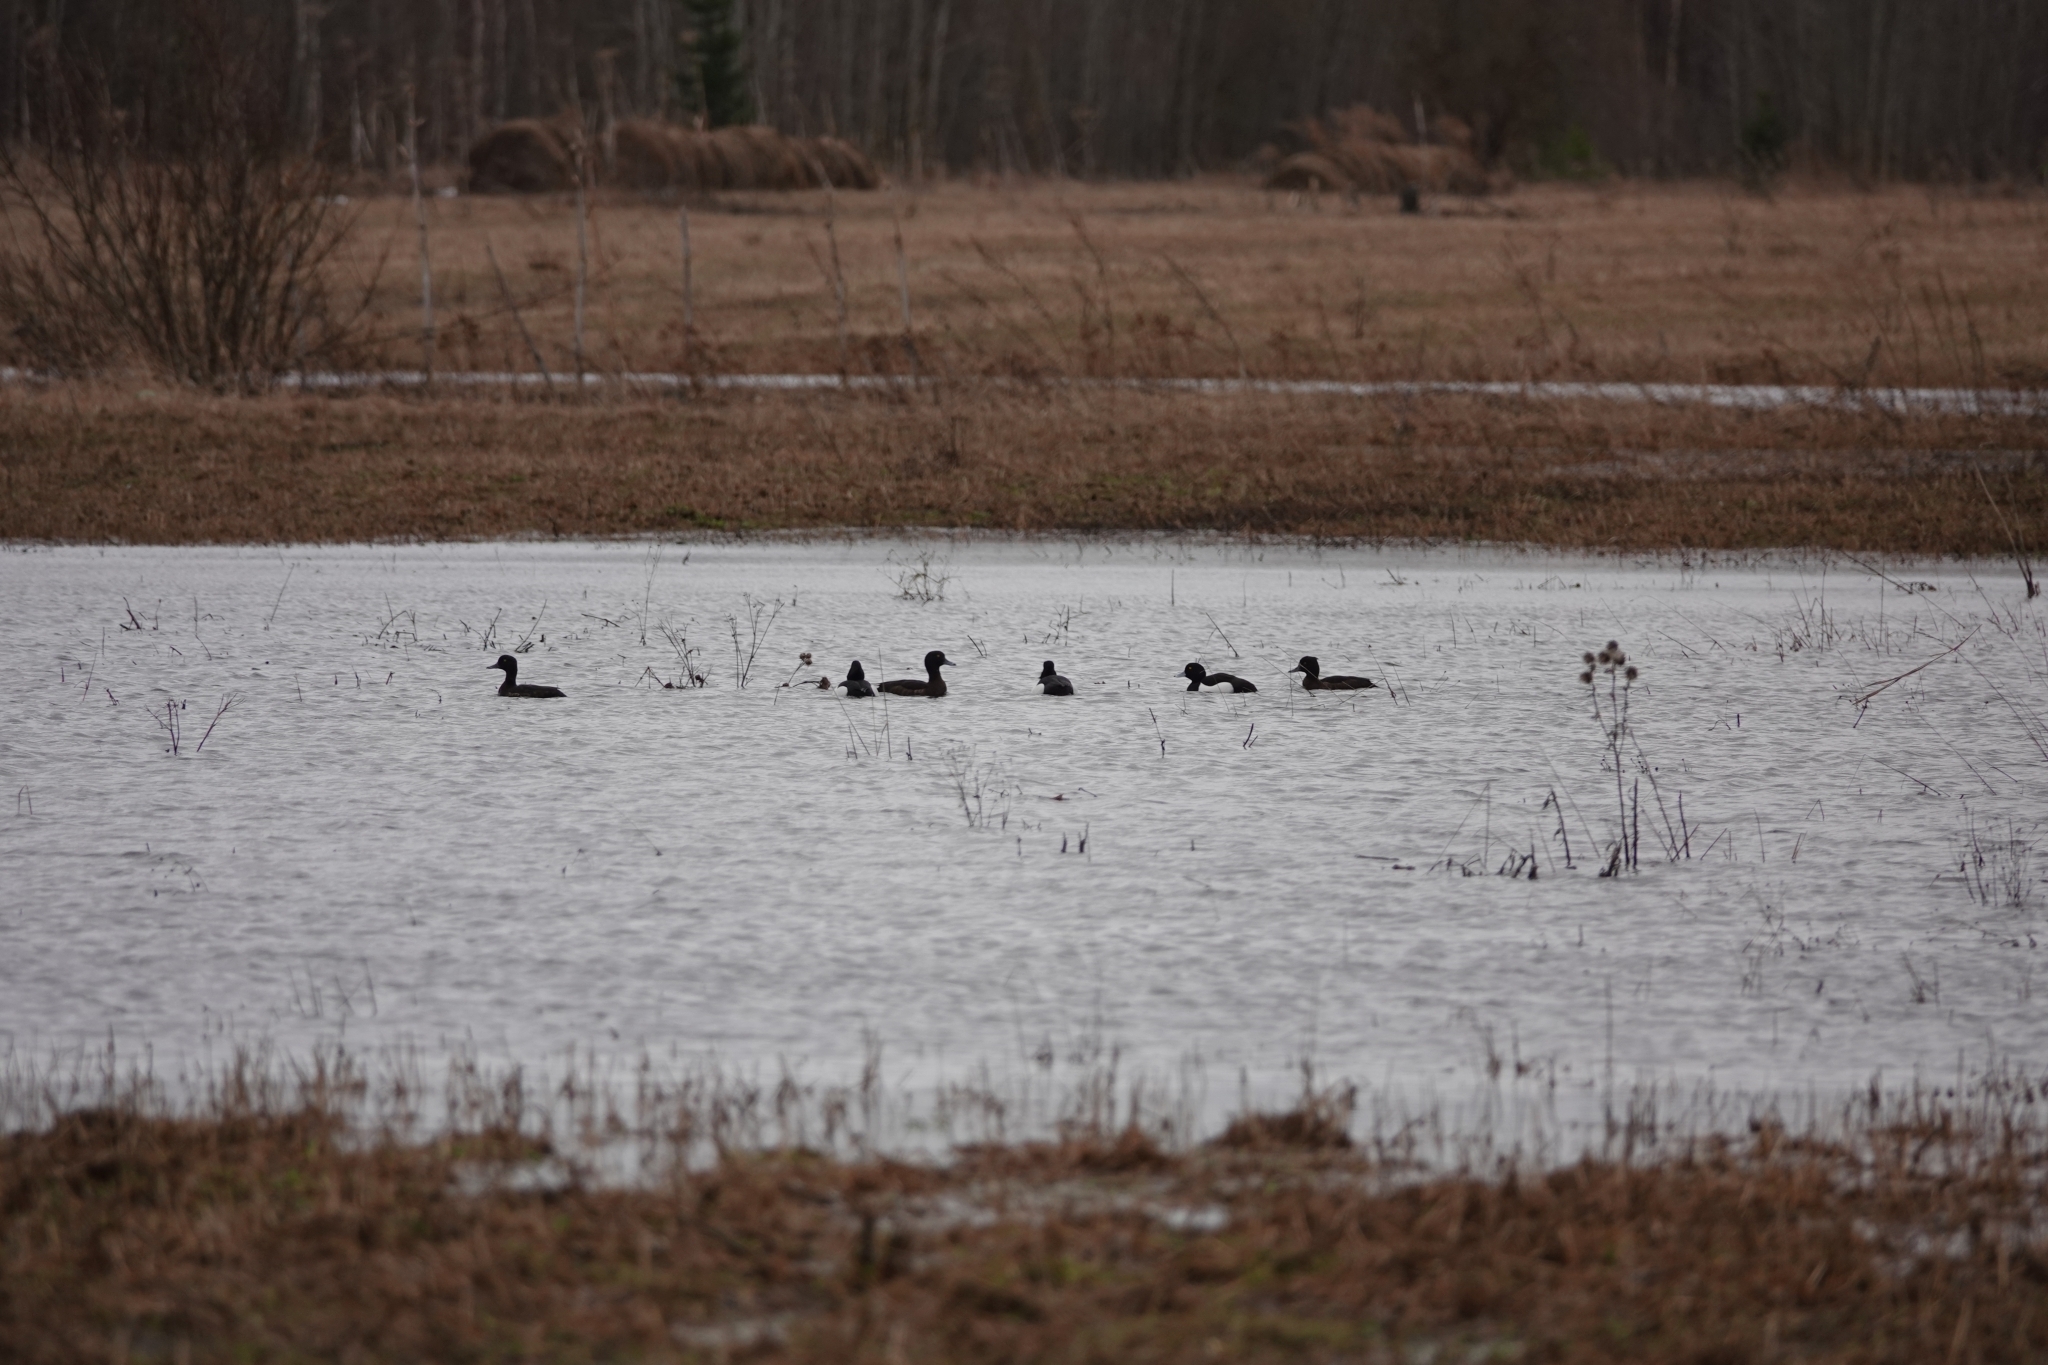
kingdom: Animalia
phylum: Chordata
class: Aves
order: Anseriformes
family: Anatidae
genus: Aythya
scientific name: Aythya fuligula
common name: Tufted duck
